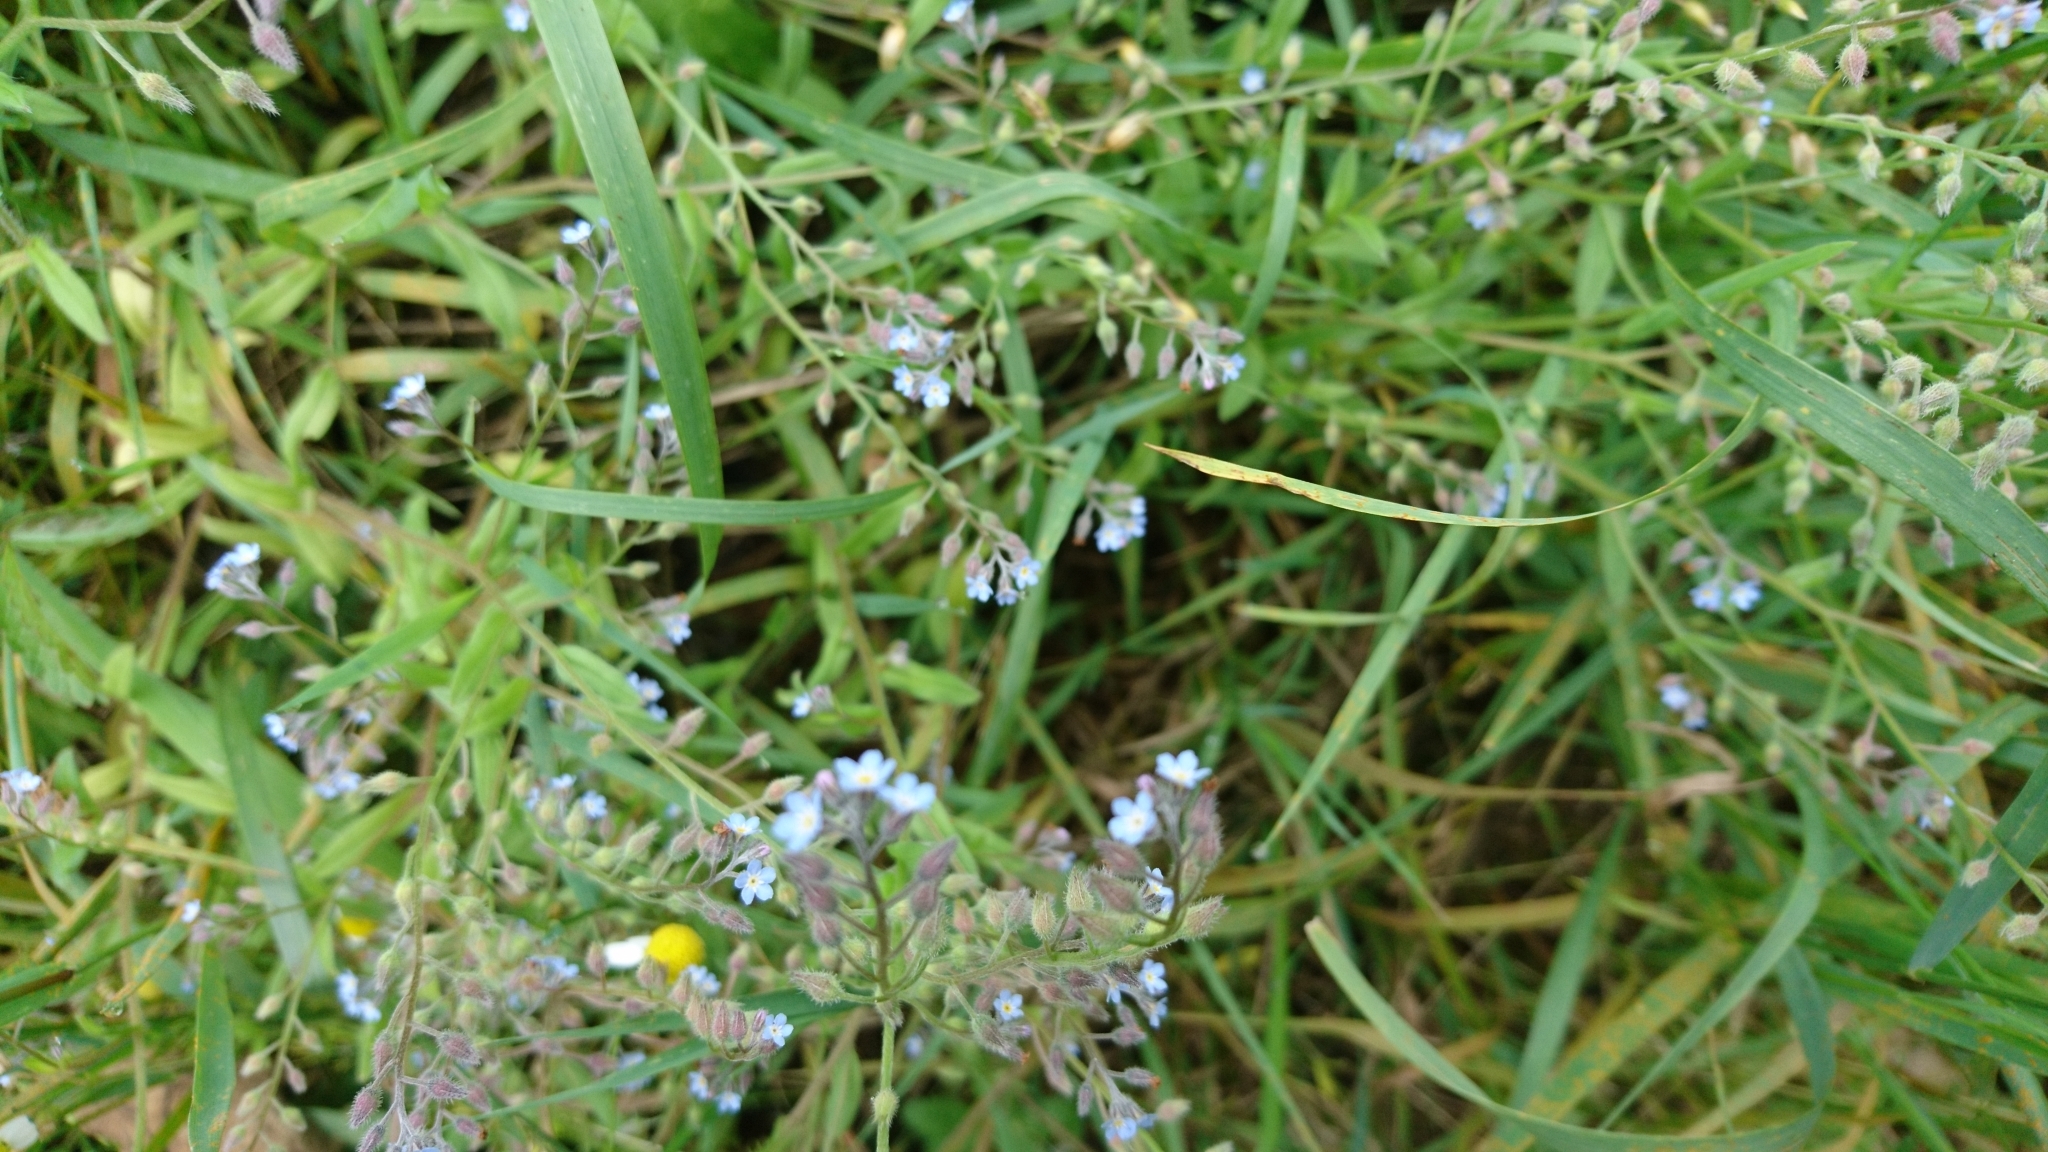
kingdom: Plantae
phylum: Tracheophyta
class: Magnoliopsida
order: Boraginales
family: Boraginaceae
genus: Myosotis
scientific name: Myosotis arvensis
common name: Field forget-me-not
